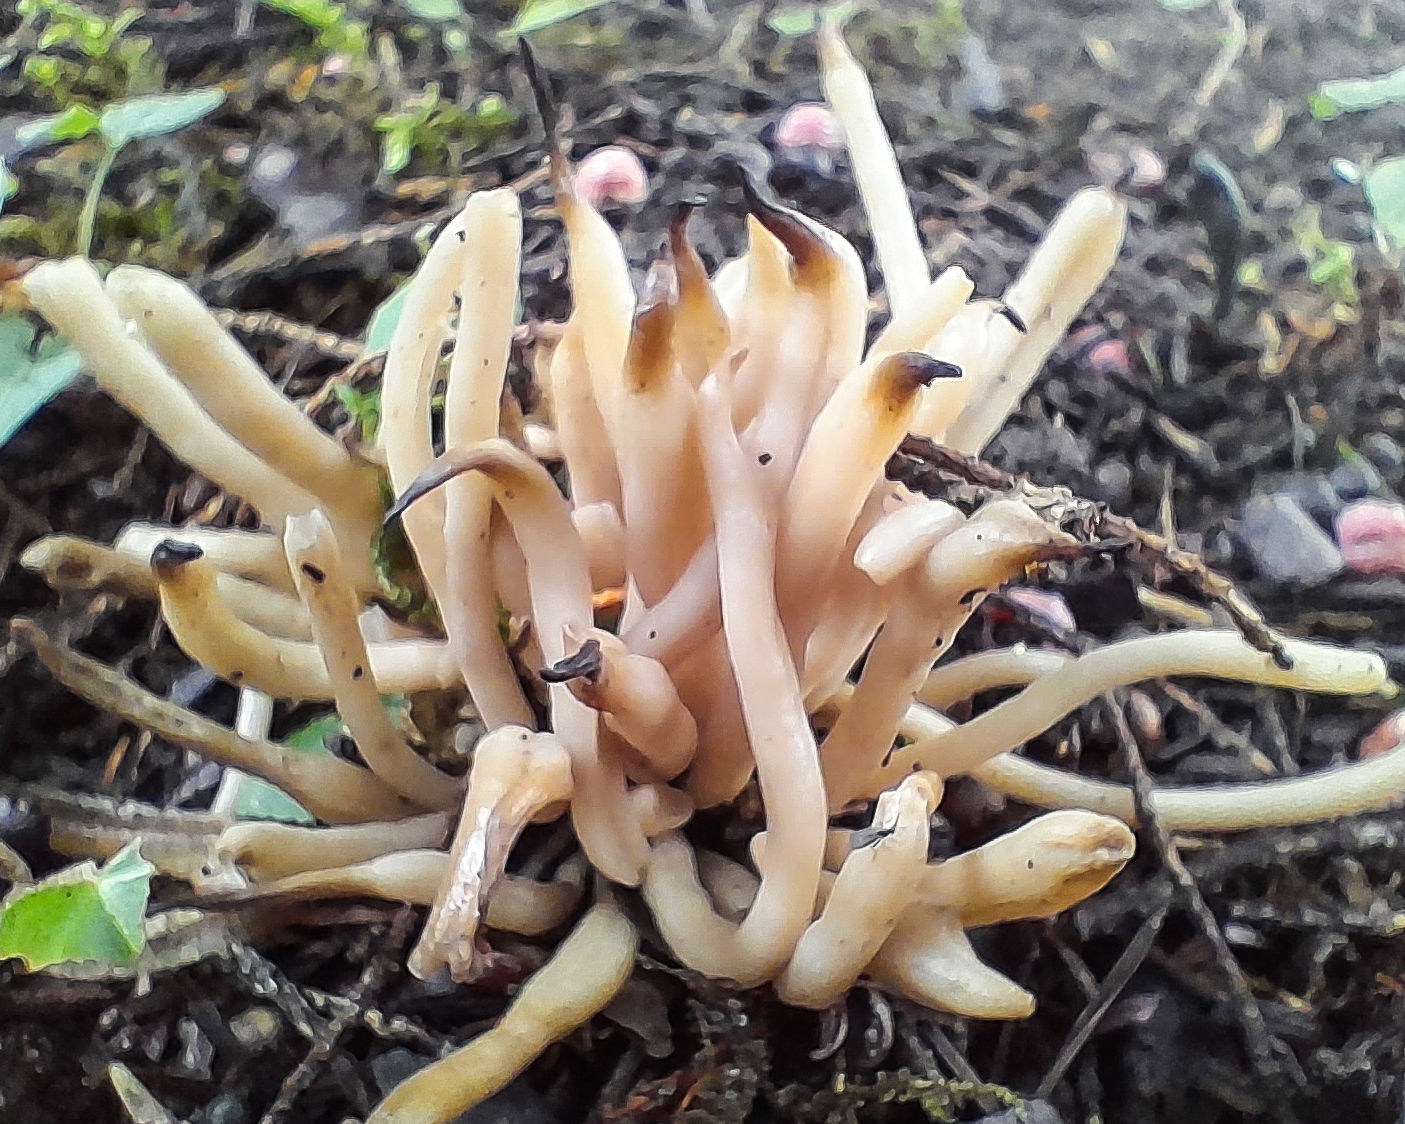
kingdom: Fungi
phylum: Basidiomycota
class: Agaricomycetes
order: Agaricales
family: Clavariaceae
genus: Clavaria
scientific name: Clavaria fumosa
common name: Smoky spindles
